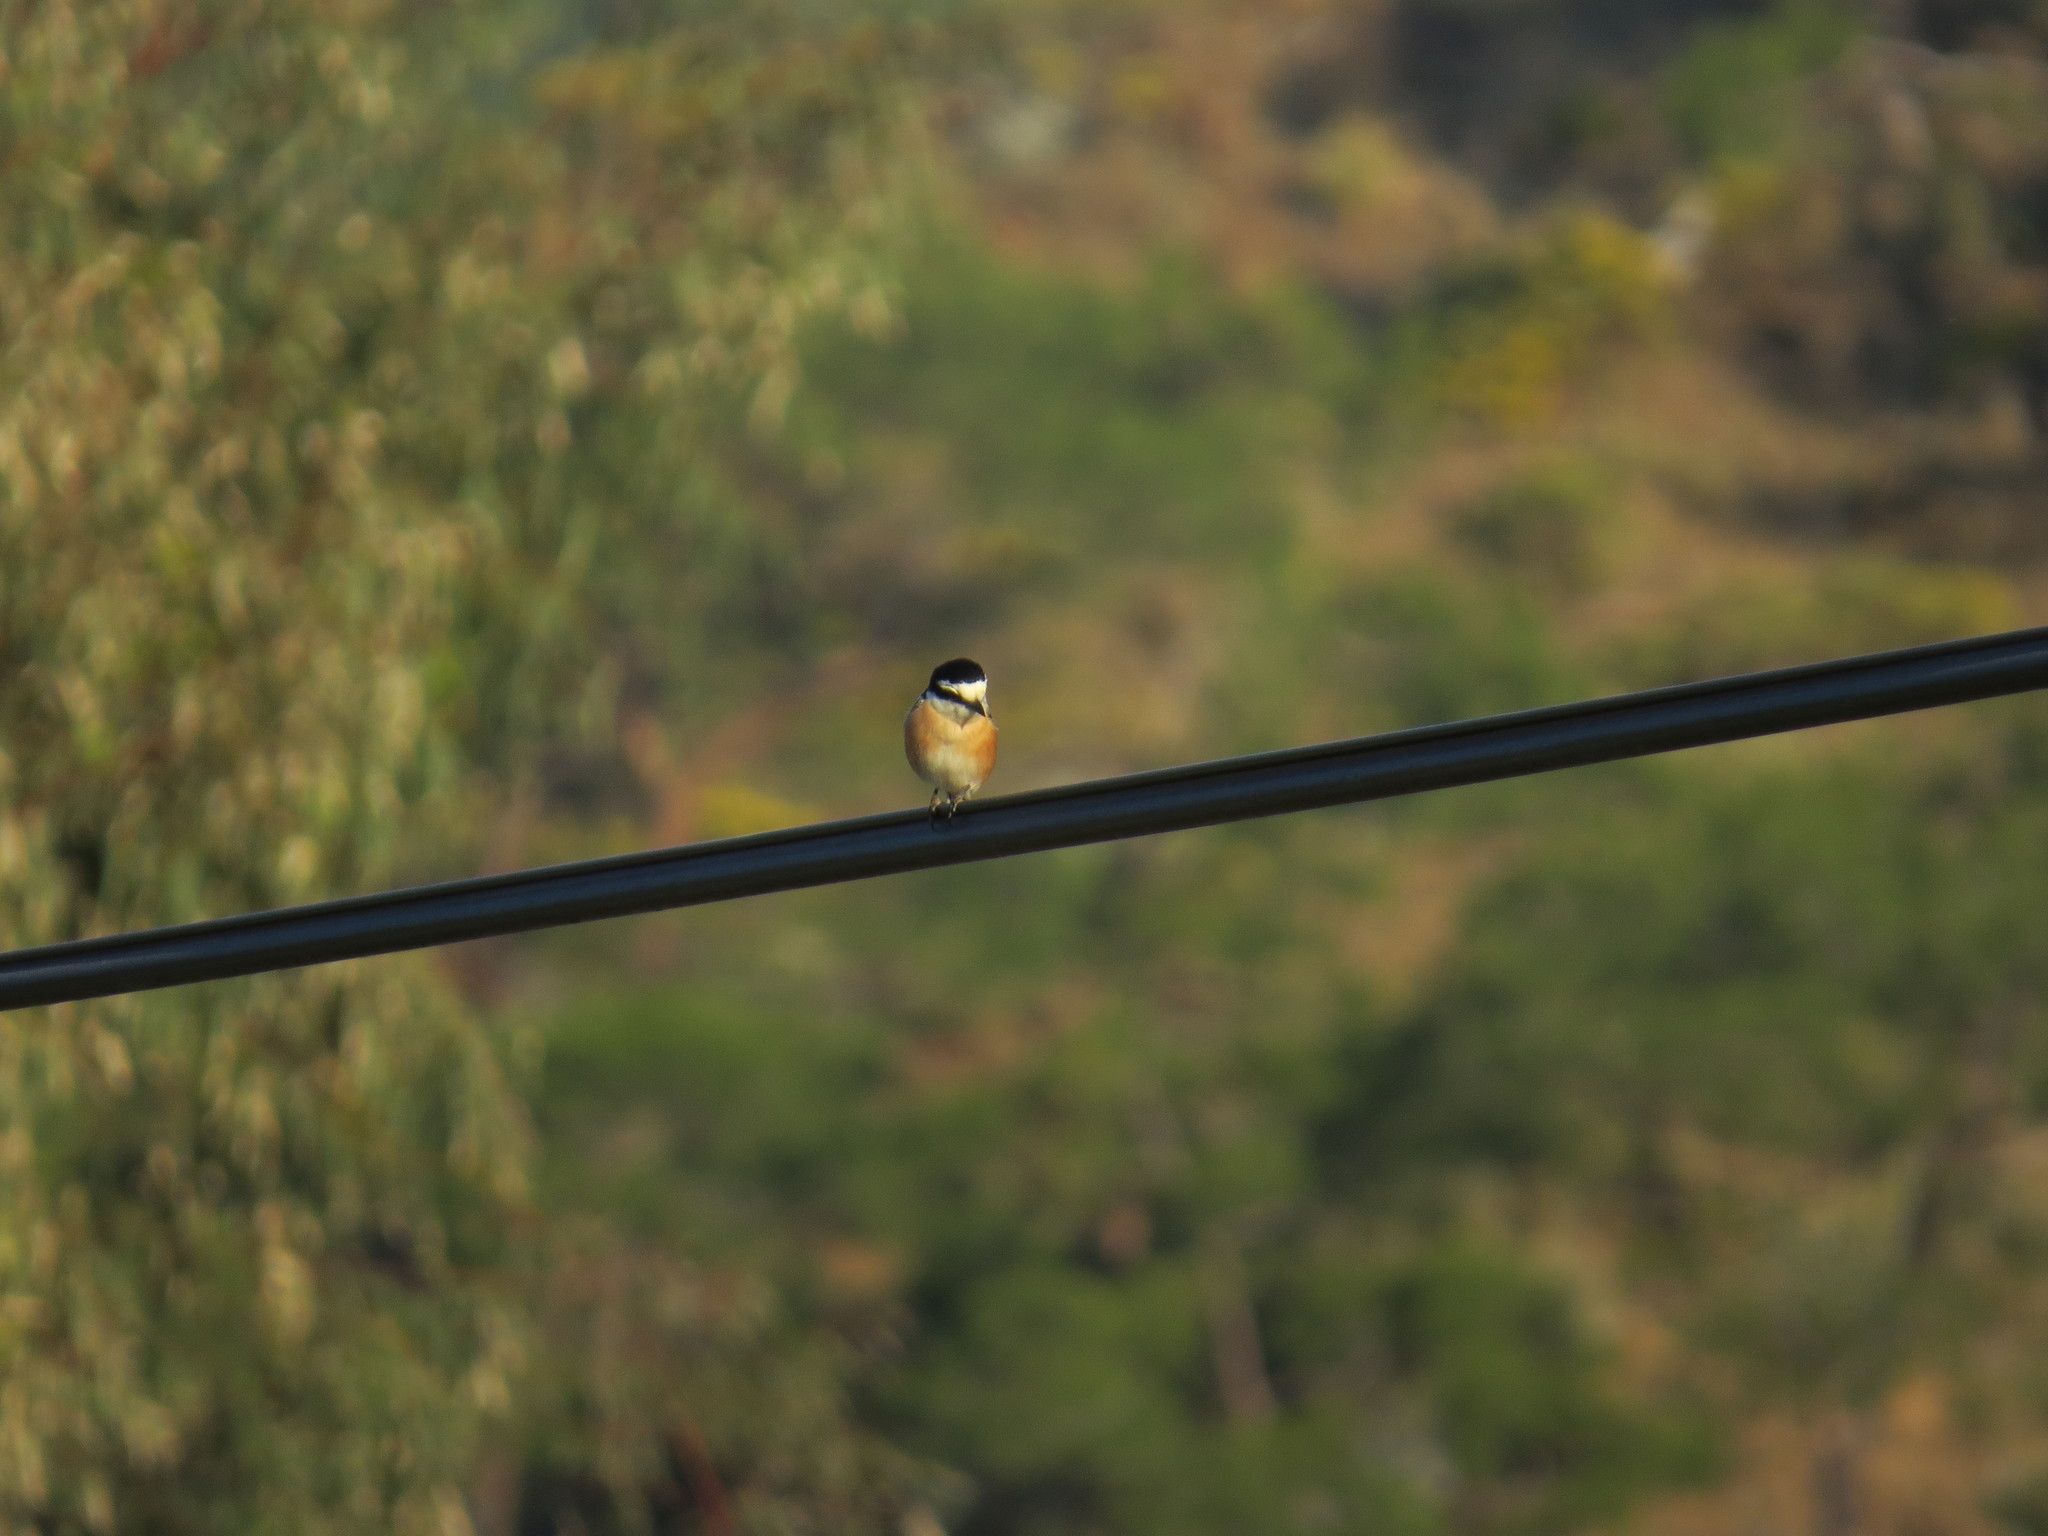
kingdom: Animalia
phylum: Chordata
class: Aves
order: Passeriformes
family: Laniidae
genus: Lanius
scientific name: Lanius nubicus
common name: Masked shrike
